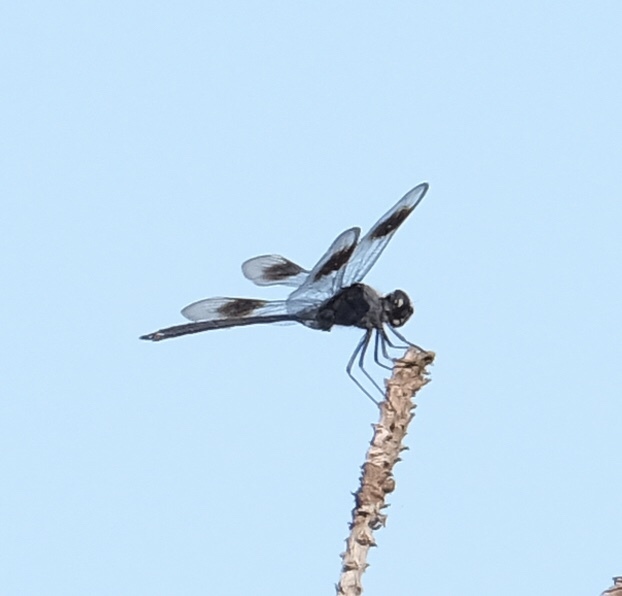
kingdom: Animalia
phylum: Arthropoda
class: Insecta
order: Odonata
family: Libellulidae
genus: Brachymesia
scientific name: Brachymesia gravida
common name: Four-spotted pennant
